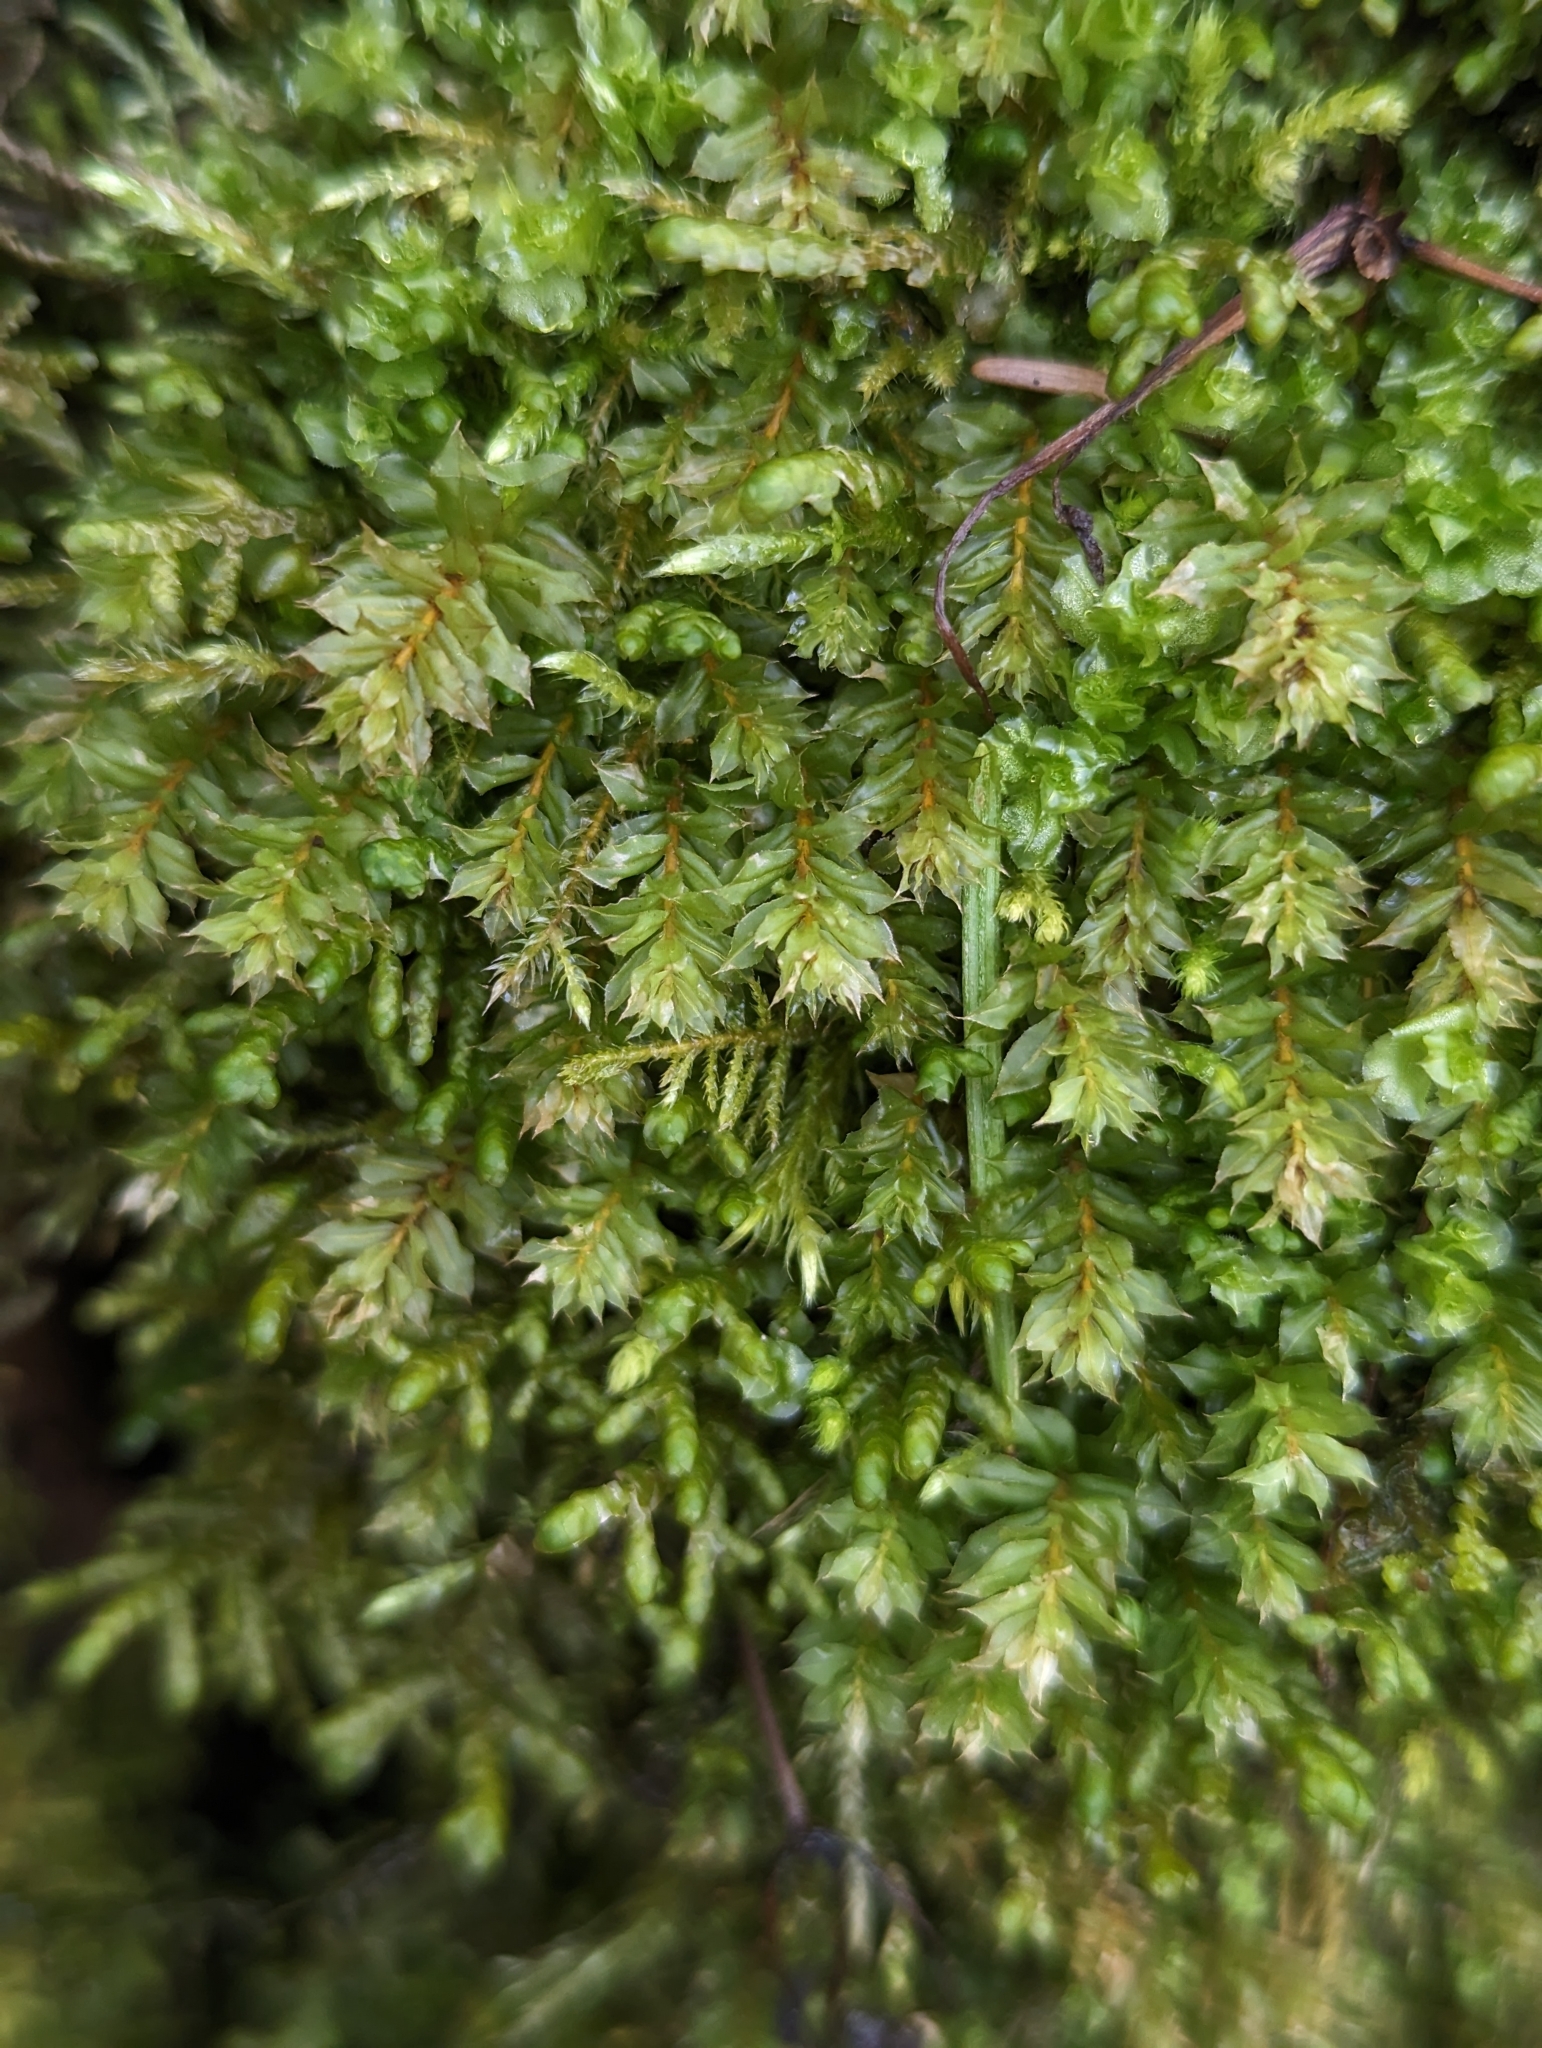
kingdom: Plantae
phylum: Bryophyta
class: Bryopsida
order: Bryales
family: Mniaceae
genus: Plagiomnium
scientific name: Plagiomnium insigne
